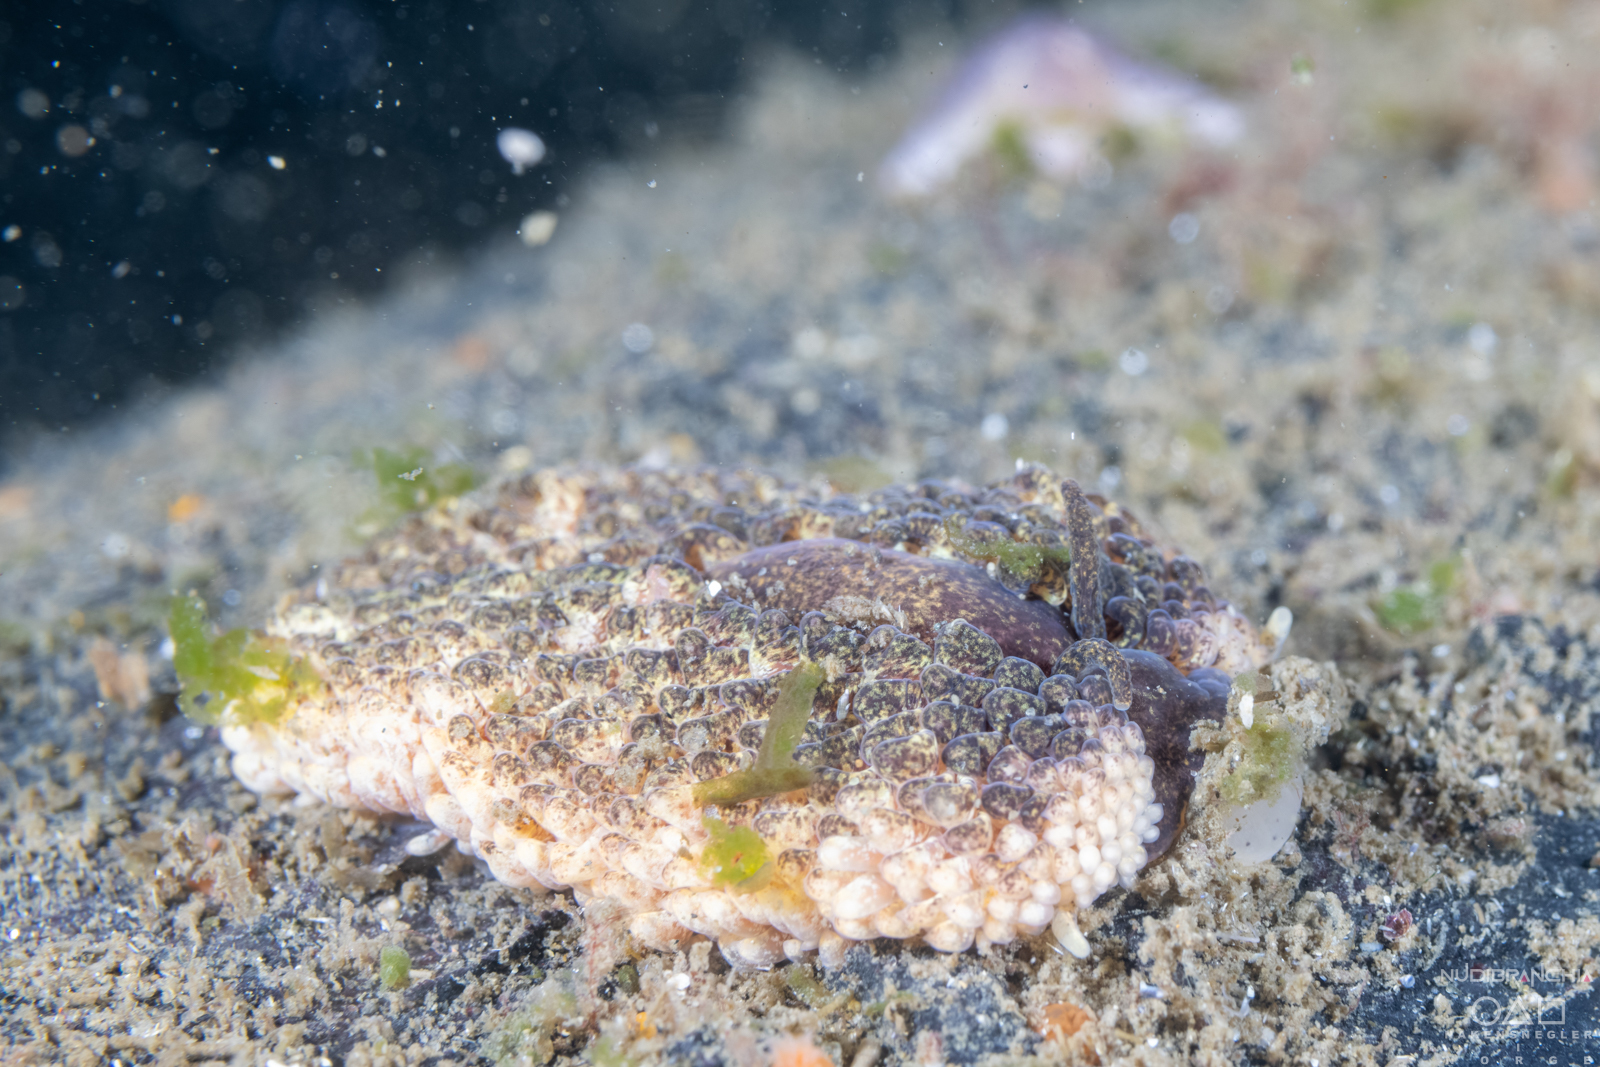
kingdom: Animalia
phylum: Mollusca
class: Gastropoda
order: Nudibranchia
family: Aeolidiidae
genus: Aeolidia
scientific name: Aeolidia papillosa
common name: Common grey sea slug
